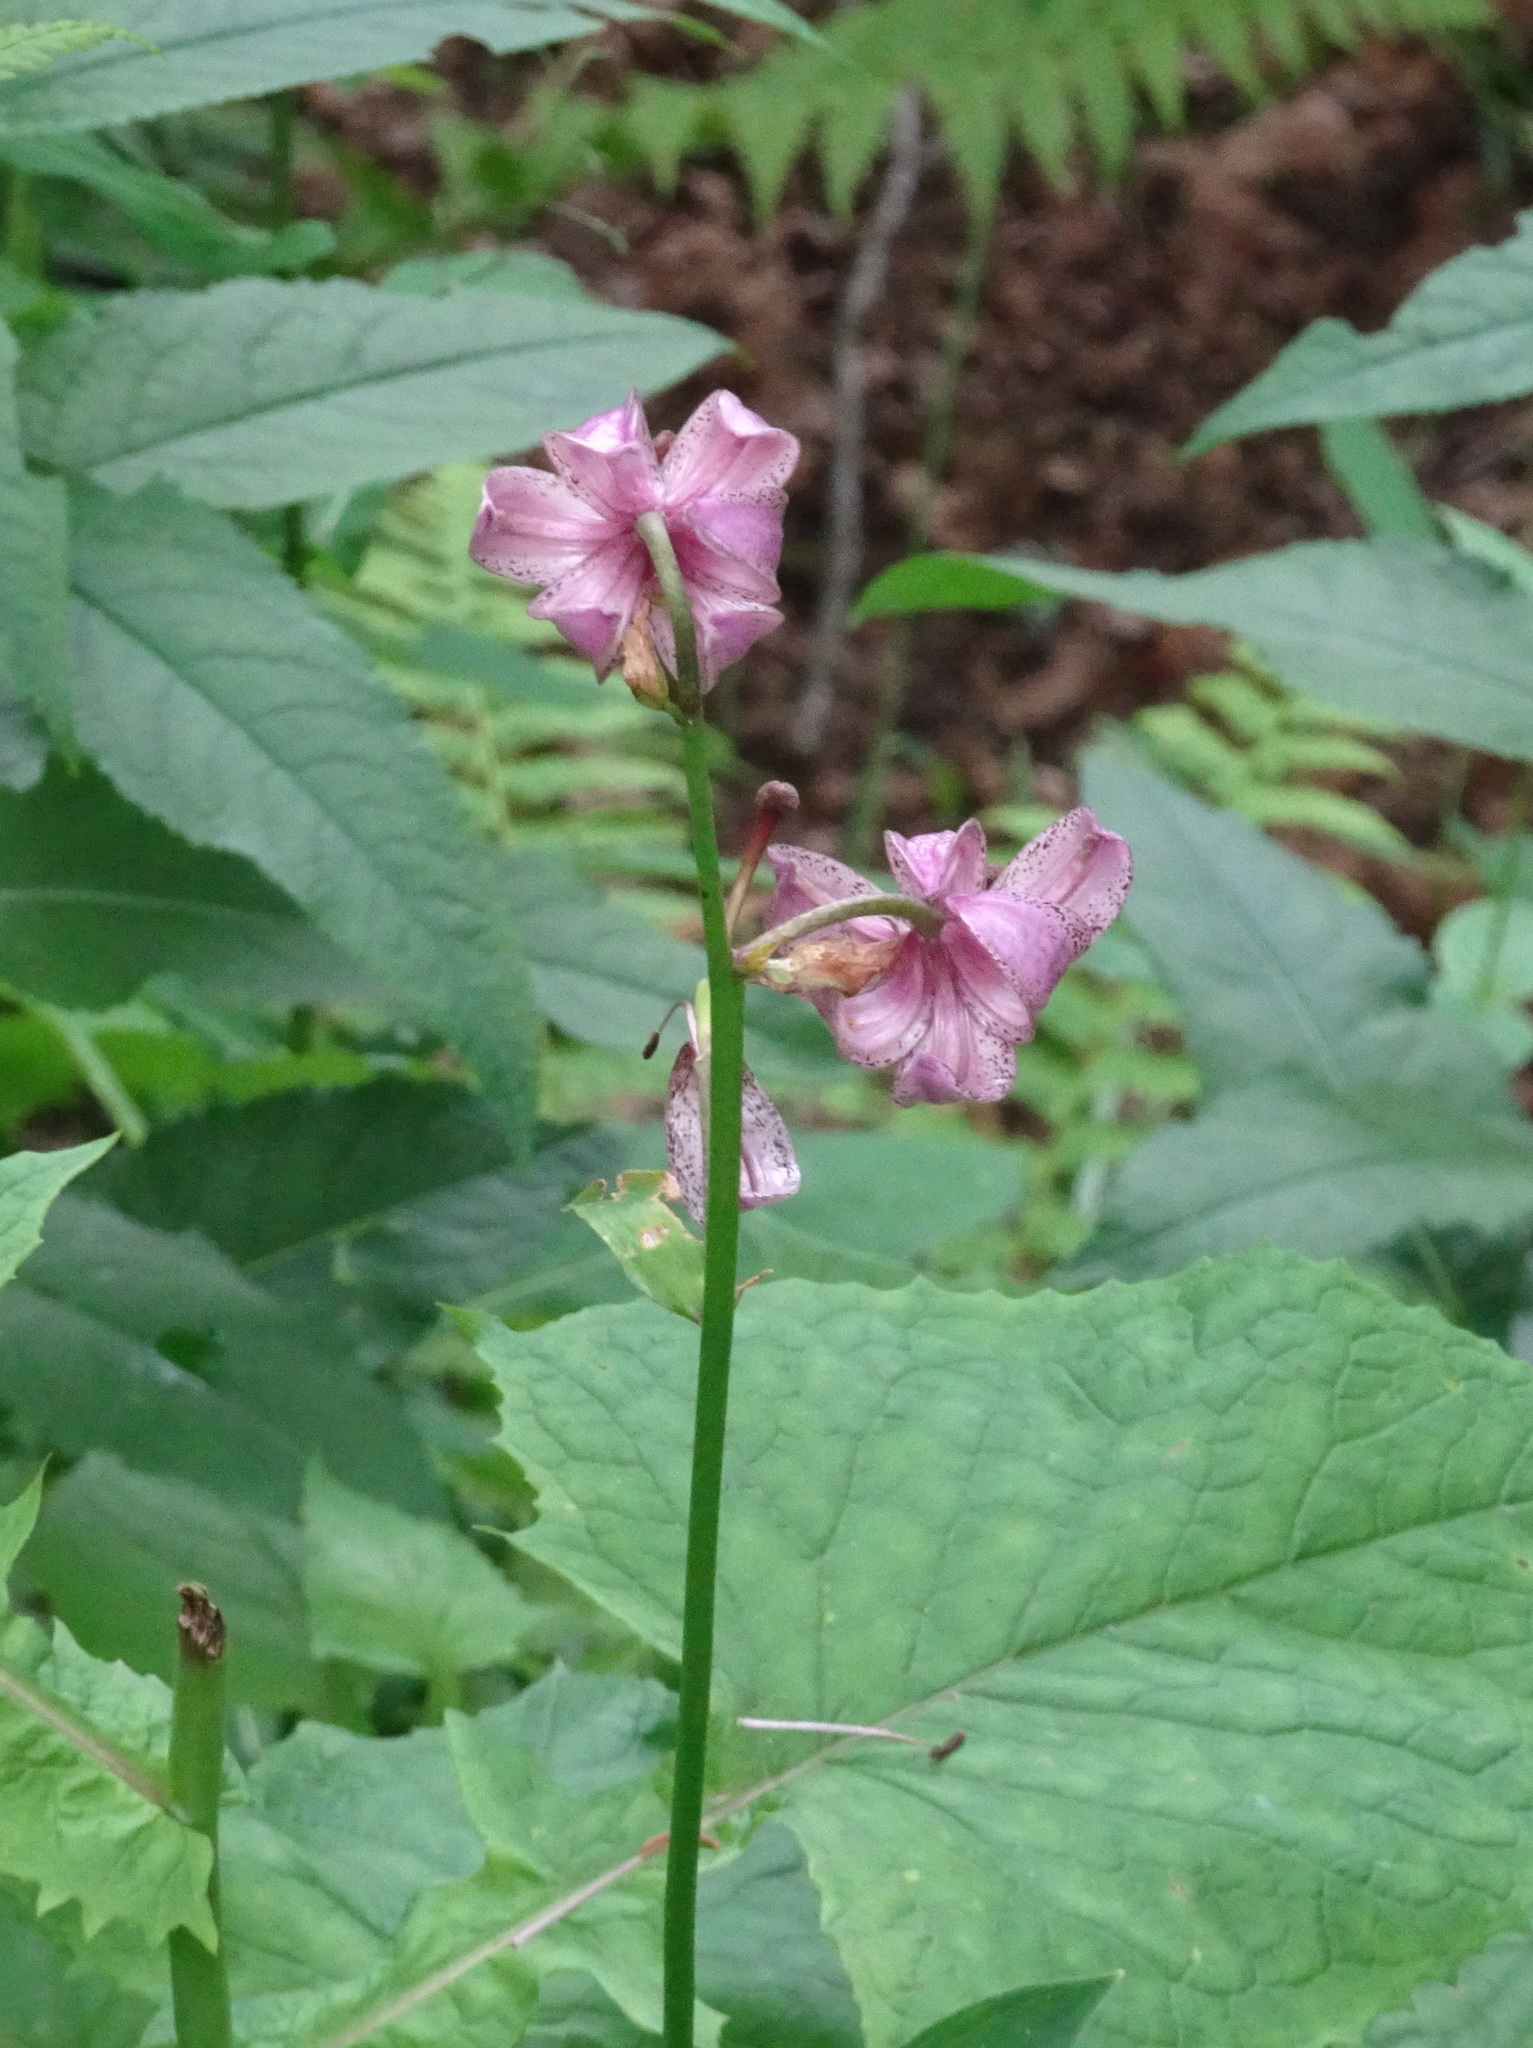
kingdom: Plantae
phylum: Tracheophyta
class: Liliopsida
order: Liliales
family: Liliaceae
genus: Lilium
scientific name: Lilium martagon
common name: Martagon lily
